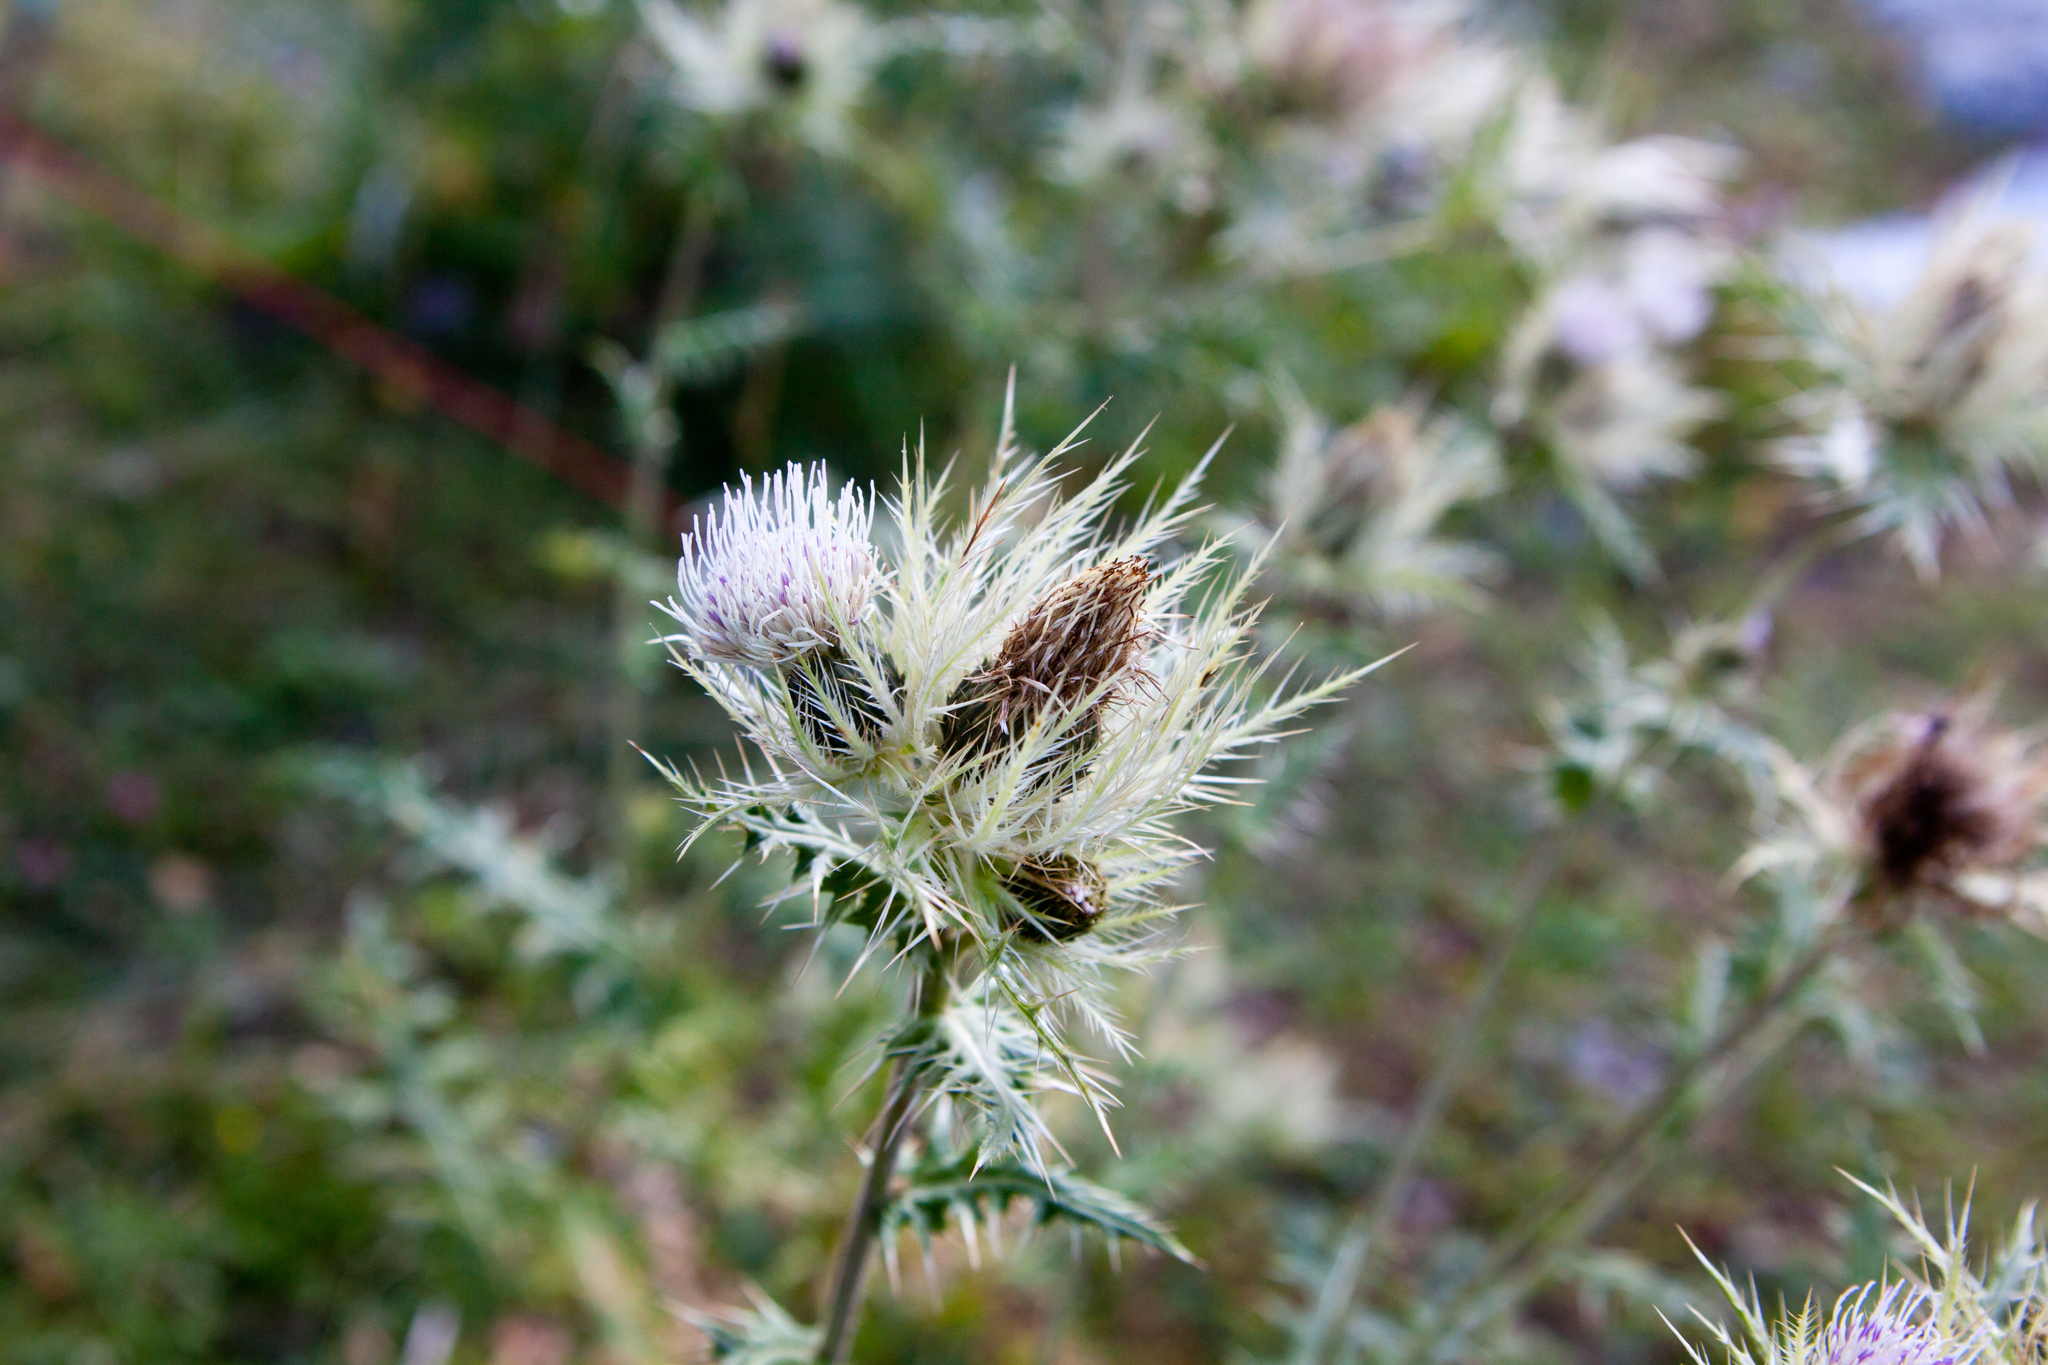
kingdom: Plantae
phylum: Tracheophyta
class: Magnoliopsida
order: Asterales
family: Asteraceae
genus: Cirsium
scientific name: Cirsium obvallatum
